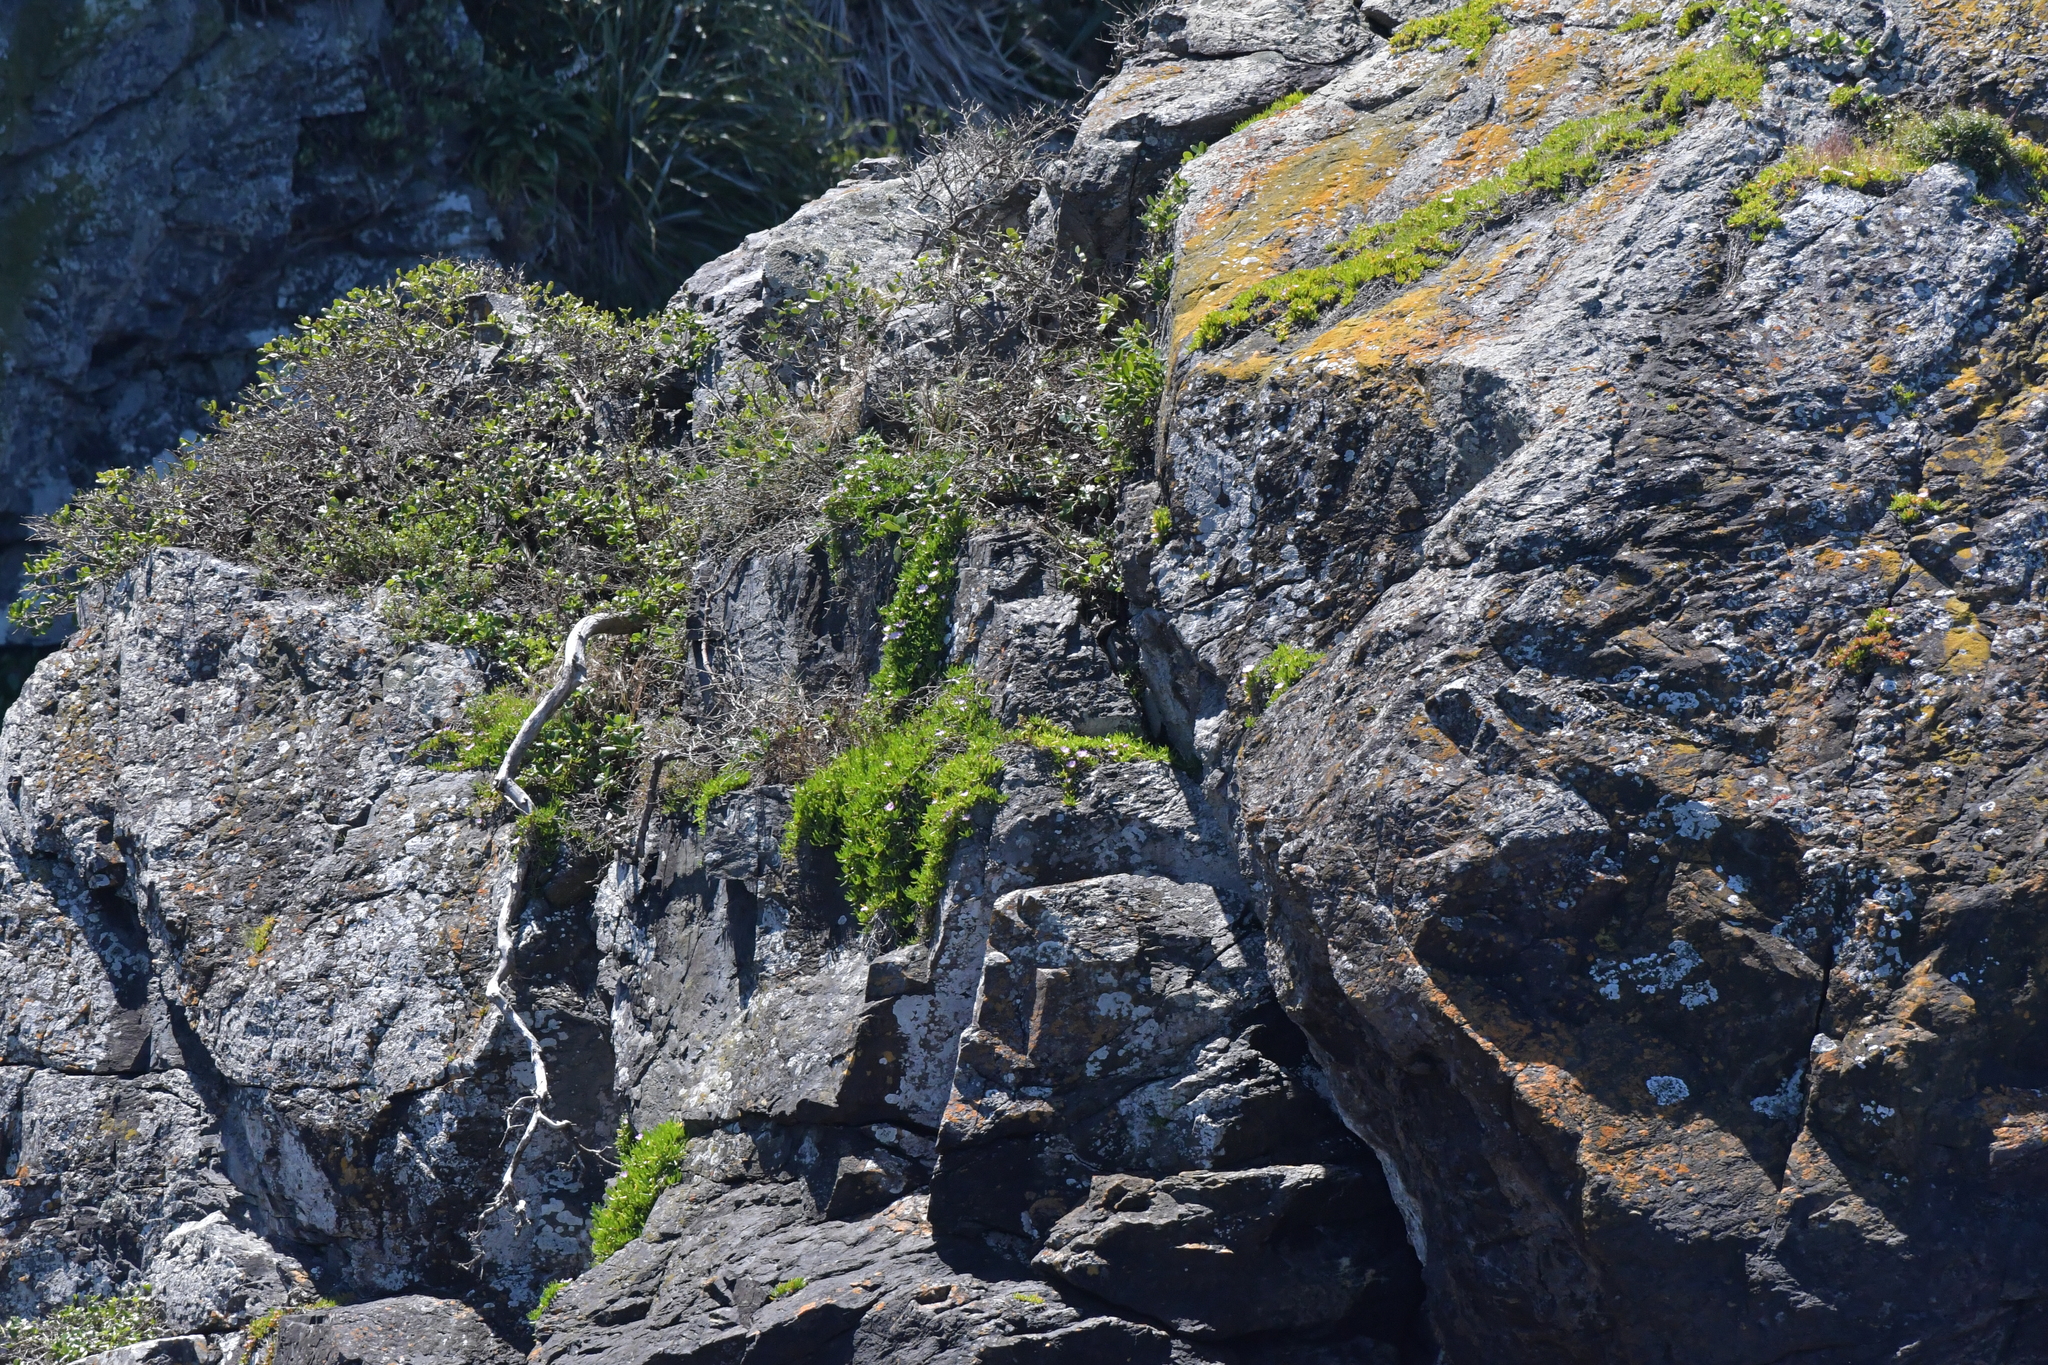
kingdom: Plantae
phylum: Tracheophyta
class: Magnoliopsida
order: Caryophyllales
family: Aizoaceae
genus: Disphyma
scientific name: Disphyma australe
